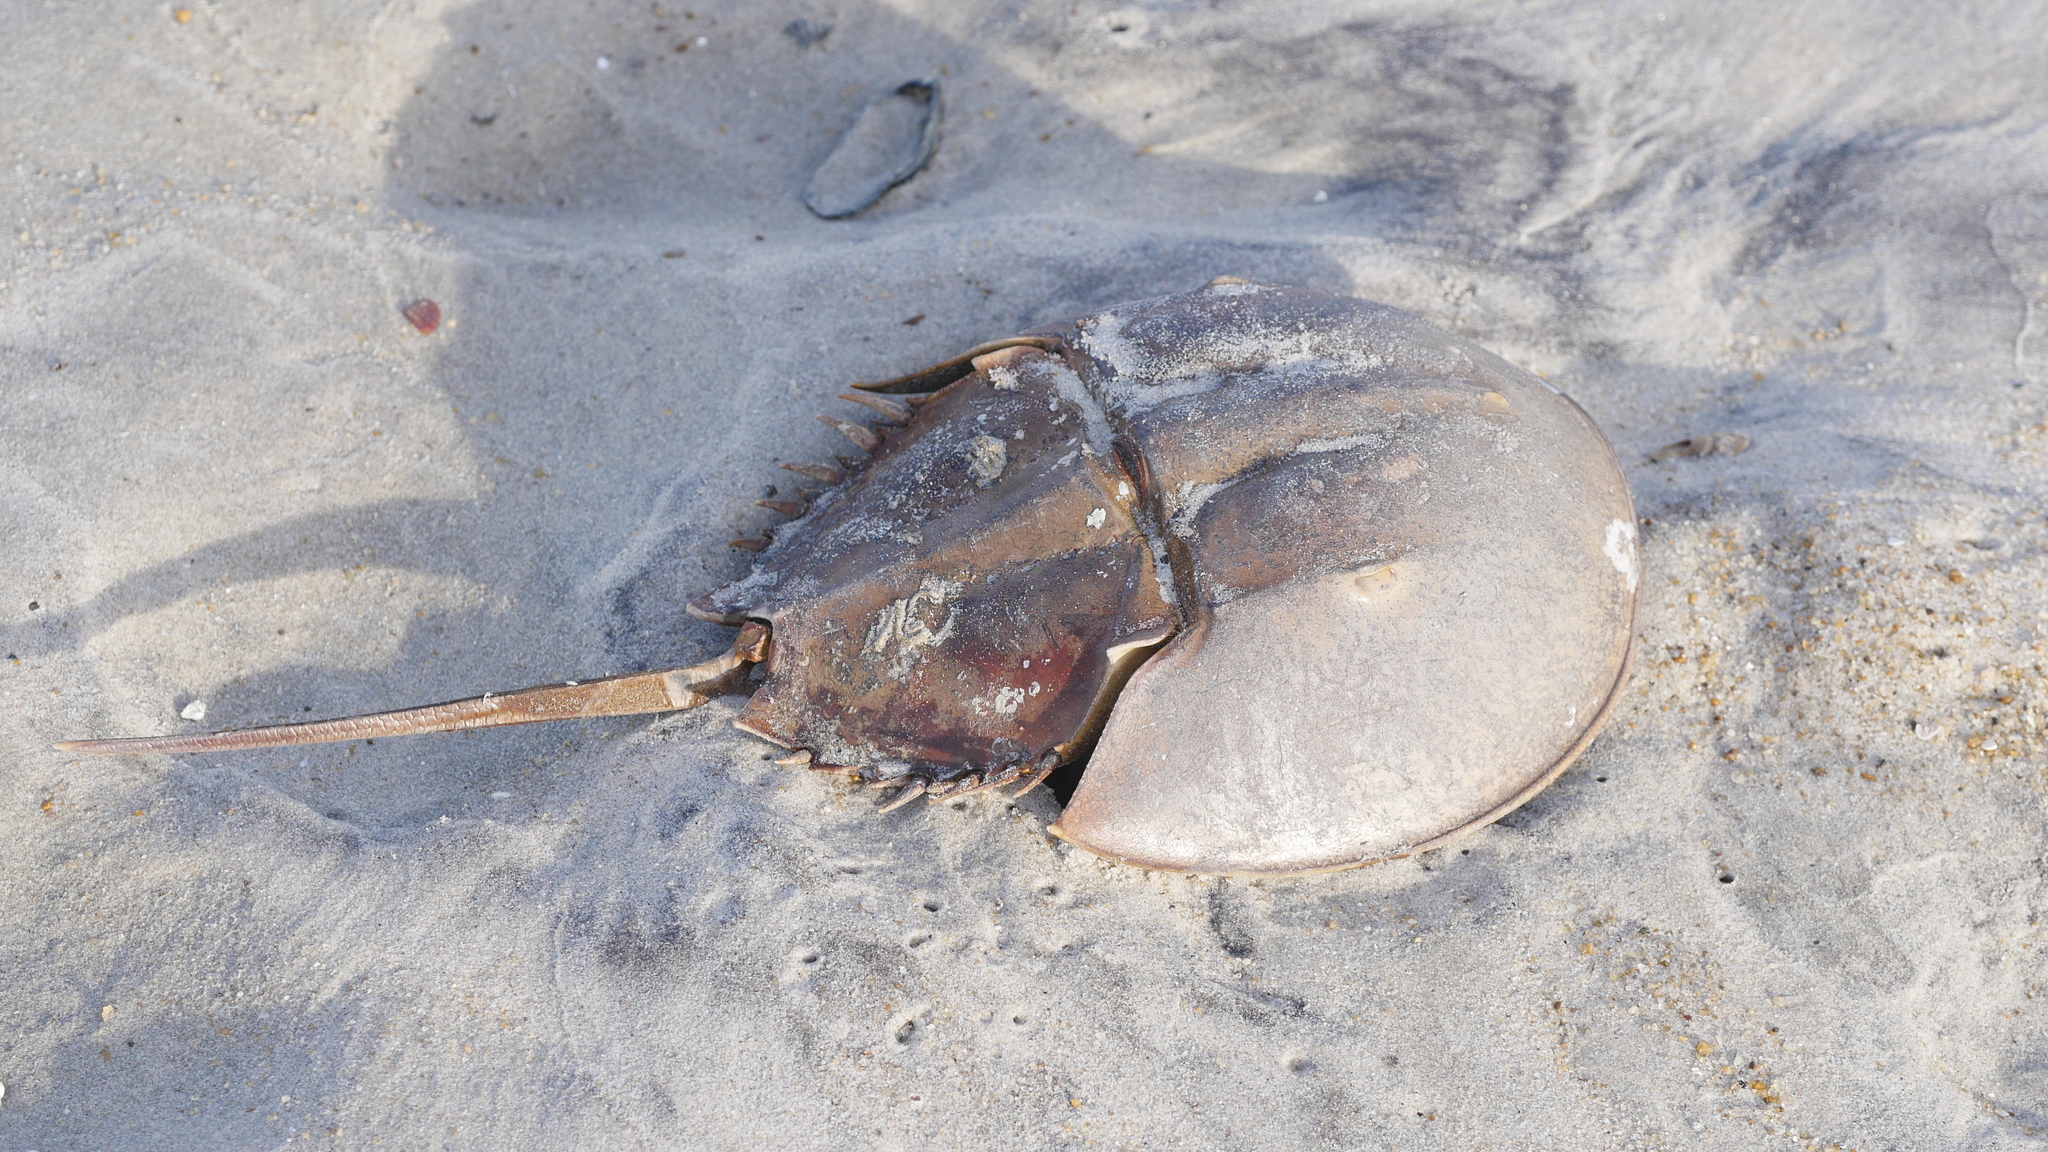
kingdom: Animalia
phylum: Arthropoda
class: Merostomata
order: Xiphosurida
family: Limulidae
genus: Limulus
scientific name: Limulus polyphemus
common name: Horseshoe crab
